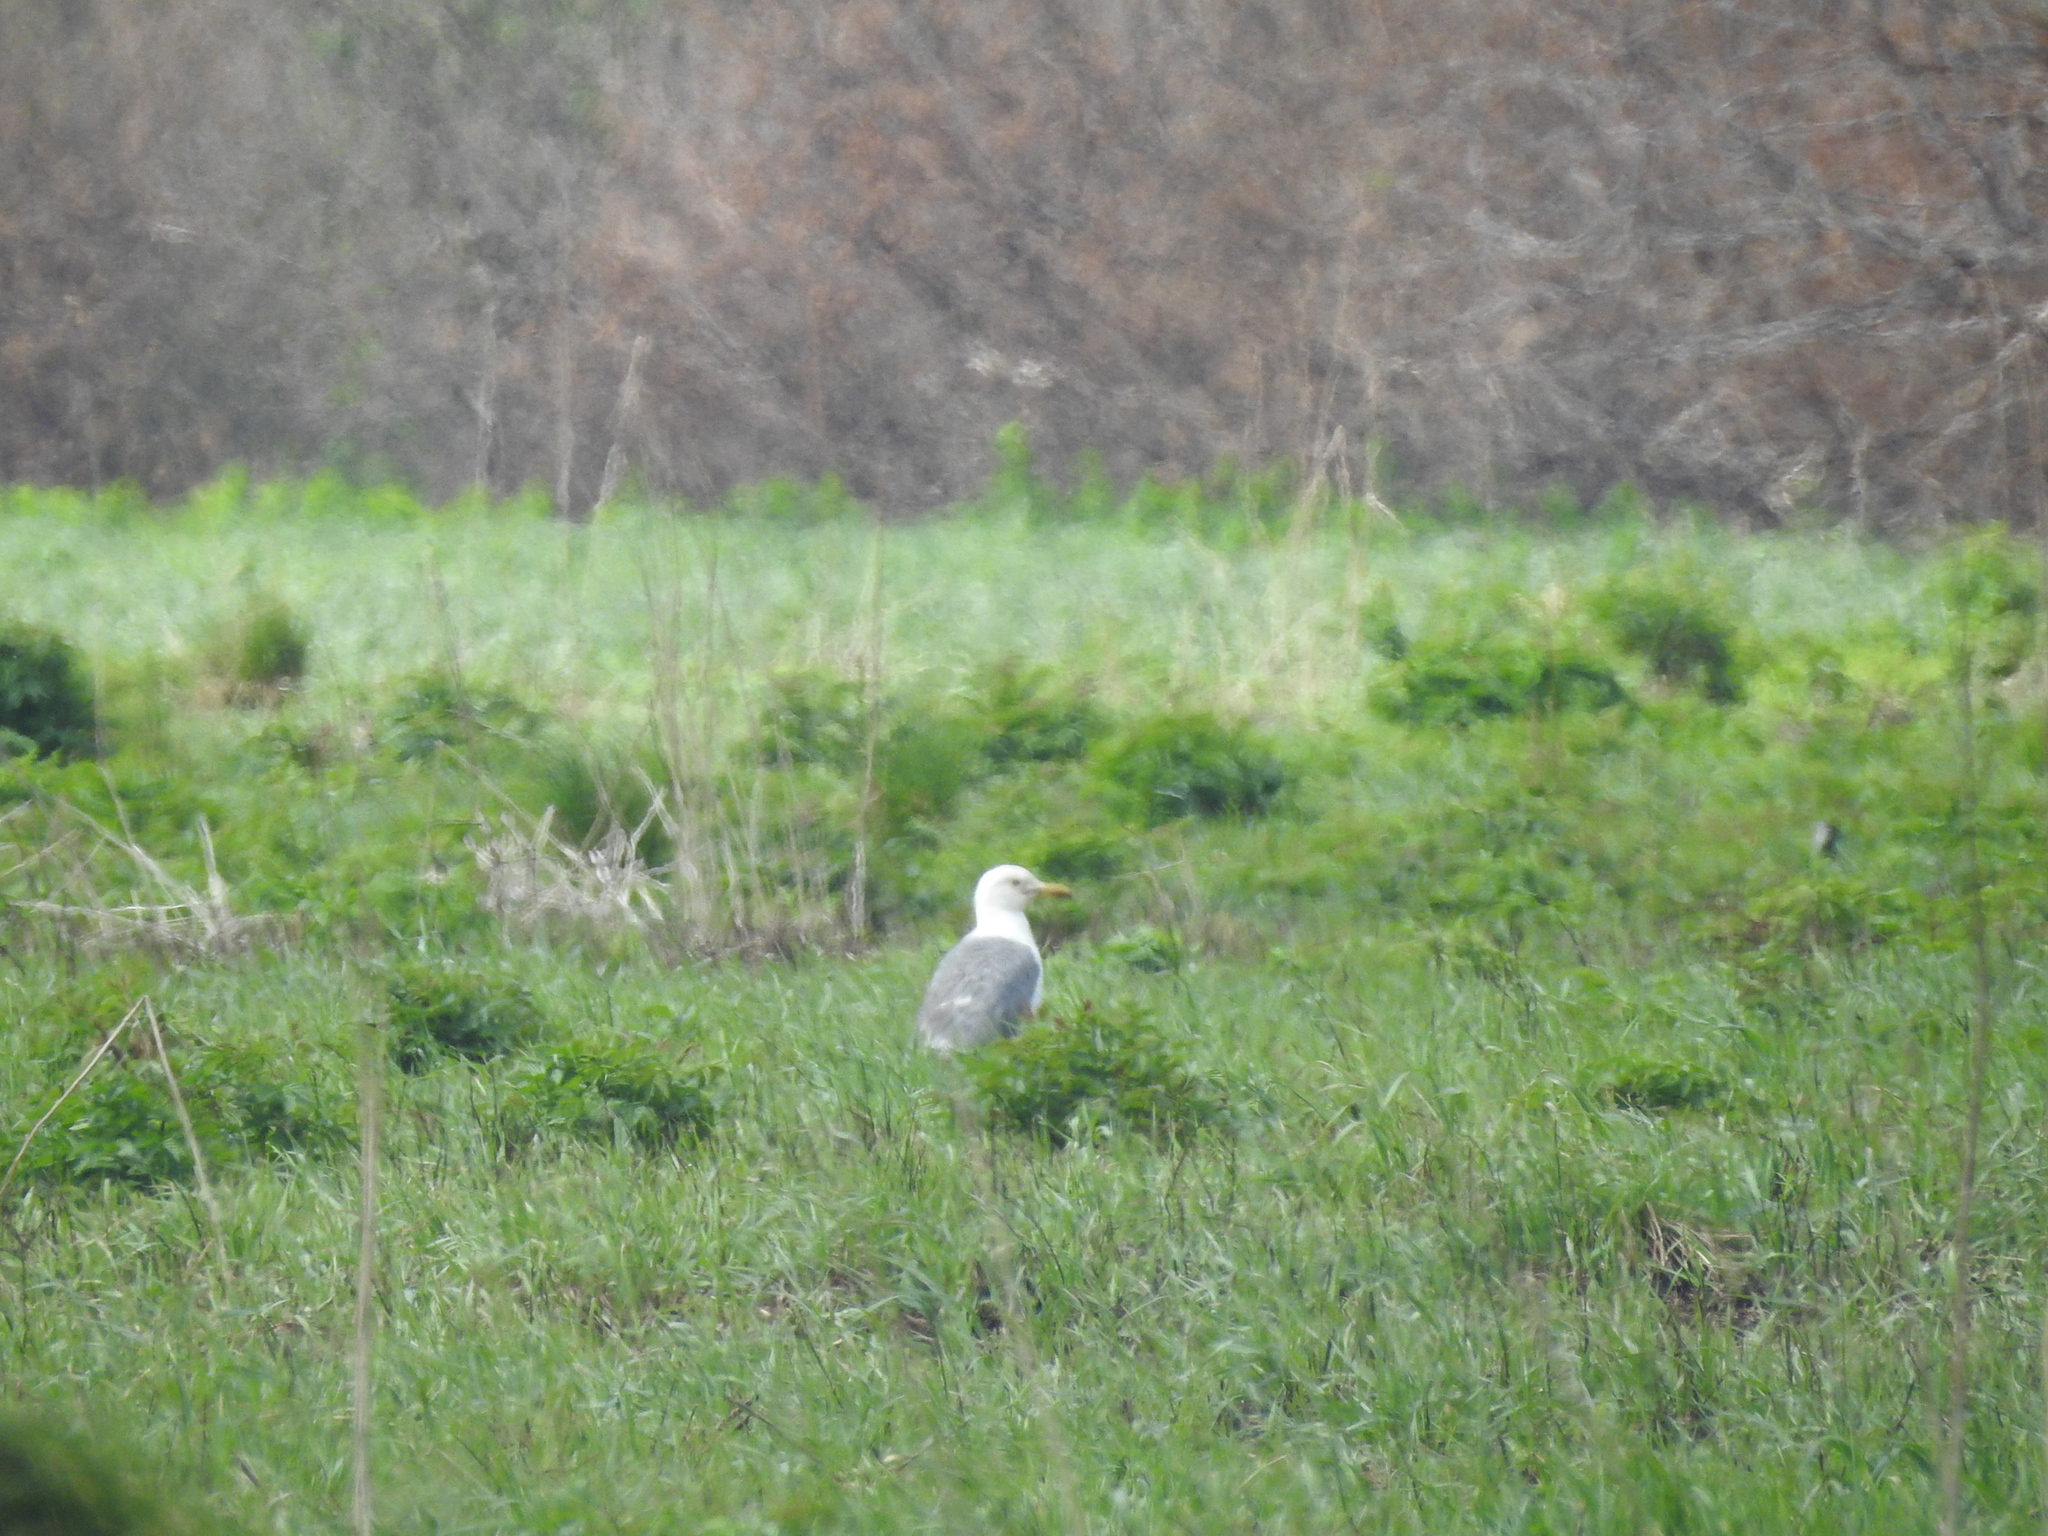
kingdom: Animalia
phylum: Chordata
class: Aves
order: Charadriiformes
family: Laridae
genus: Larus
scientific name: Larus fuscus
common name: Lesser black-backed gull
